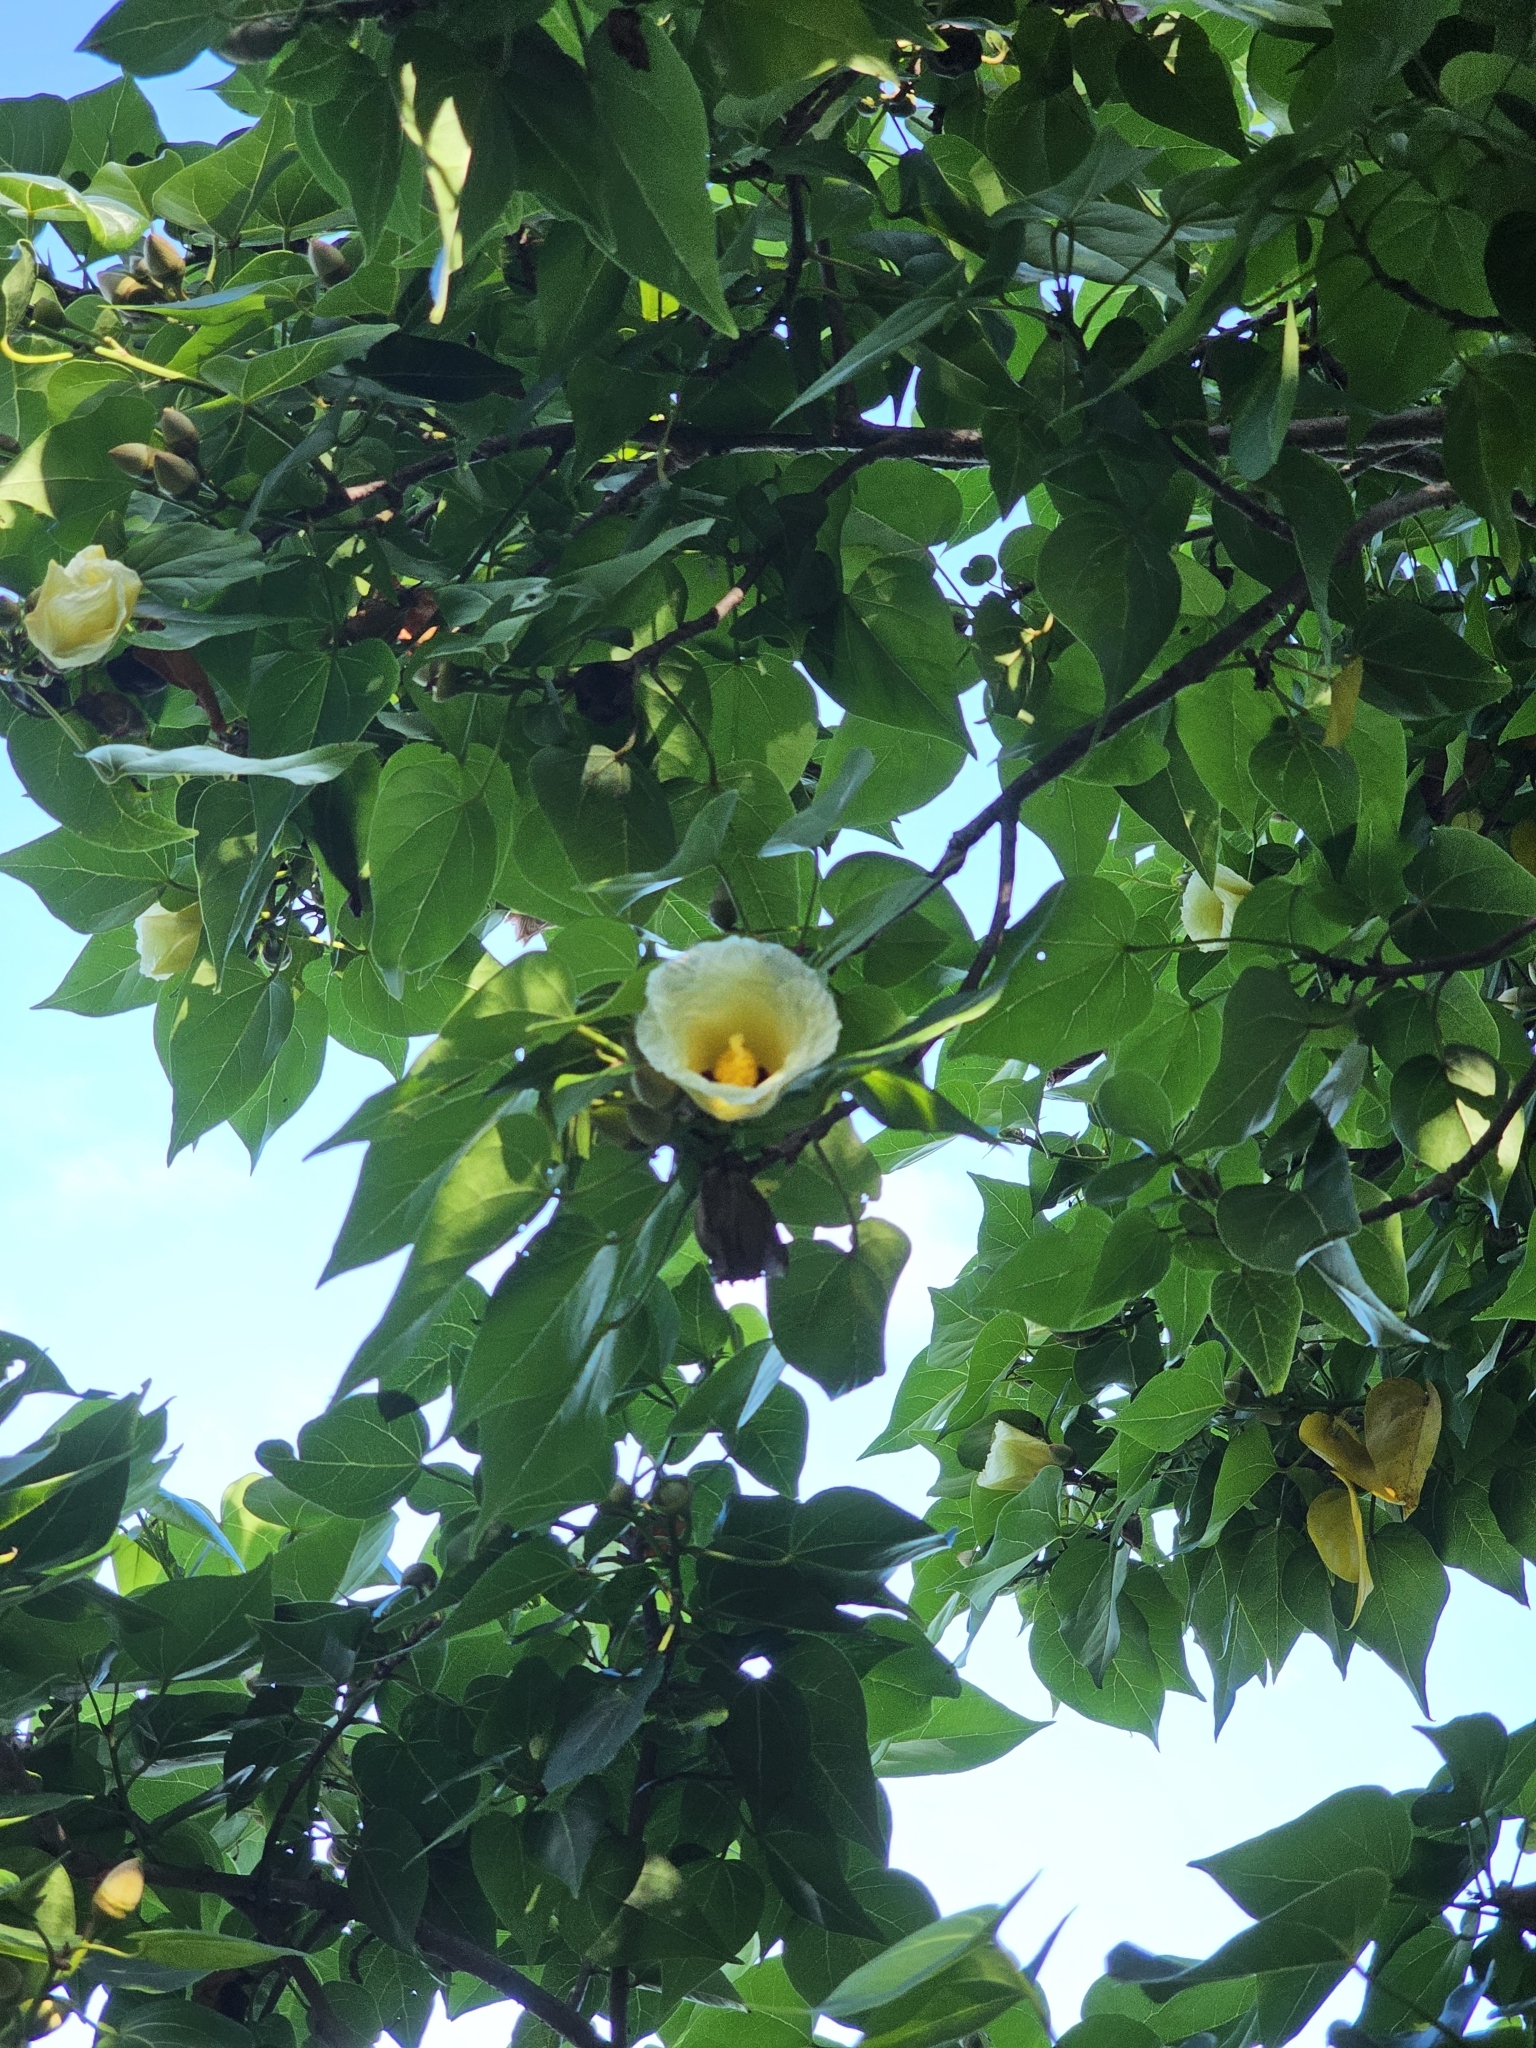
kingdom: Plantae
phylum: Tracheophyta
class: Magnoliopsida
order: Malvales
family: Malvaceae
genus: Thespesia
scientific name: Thespesia populnea
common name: Seaside mahoe
